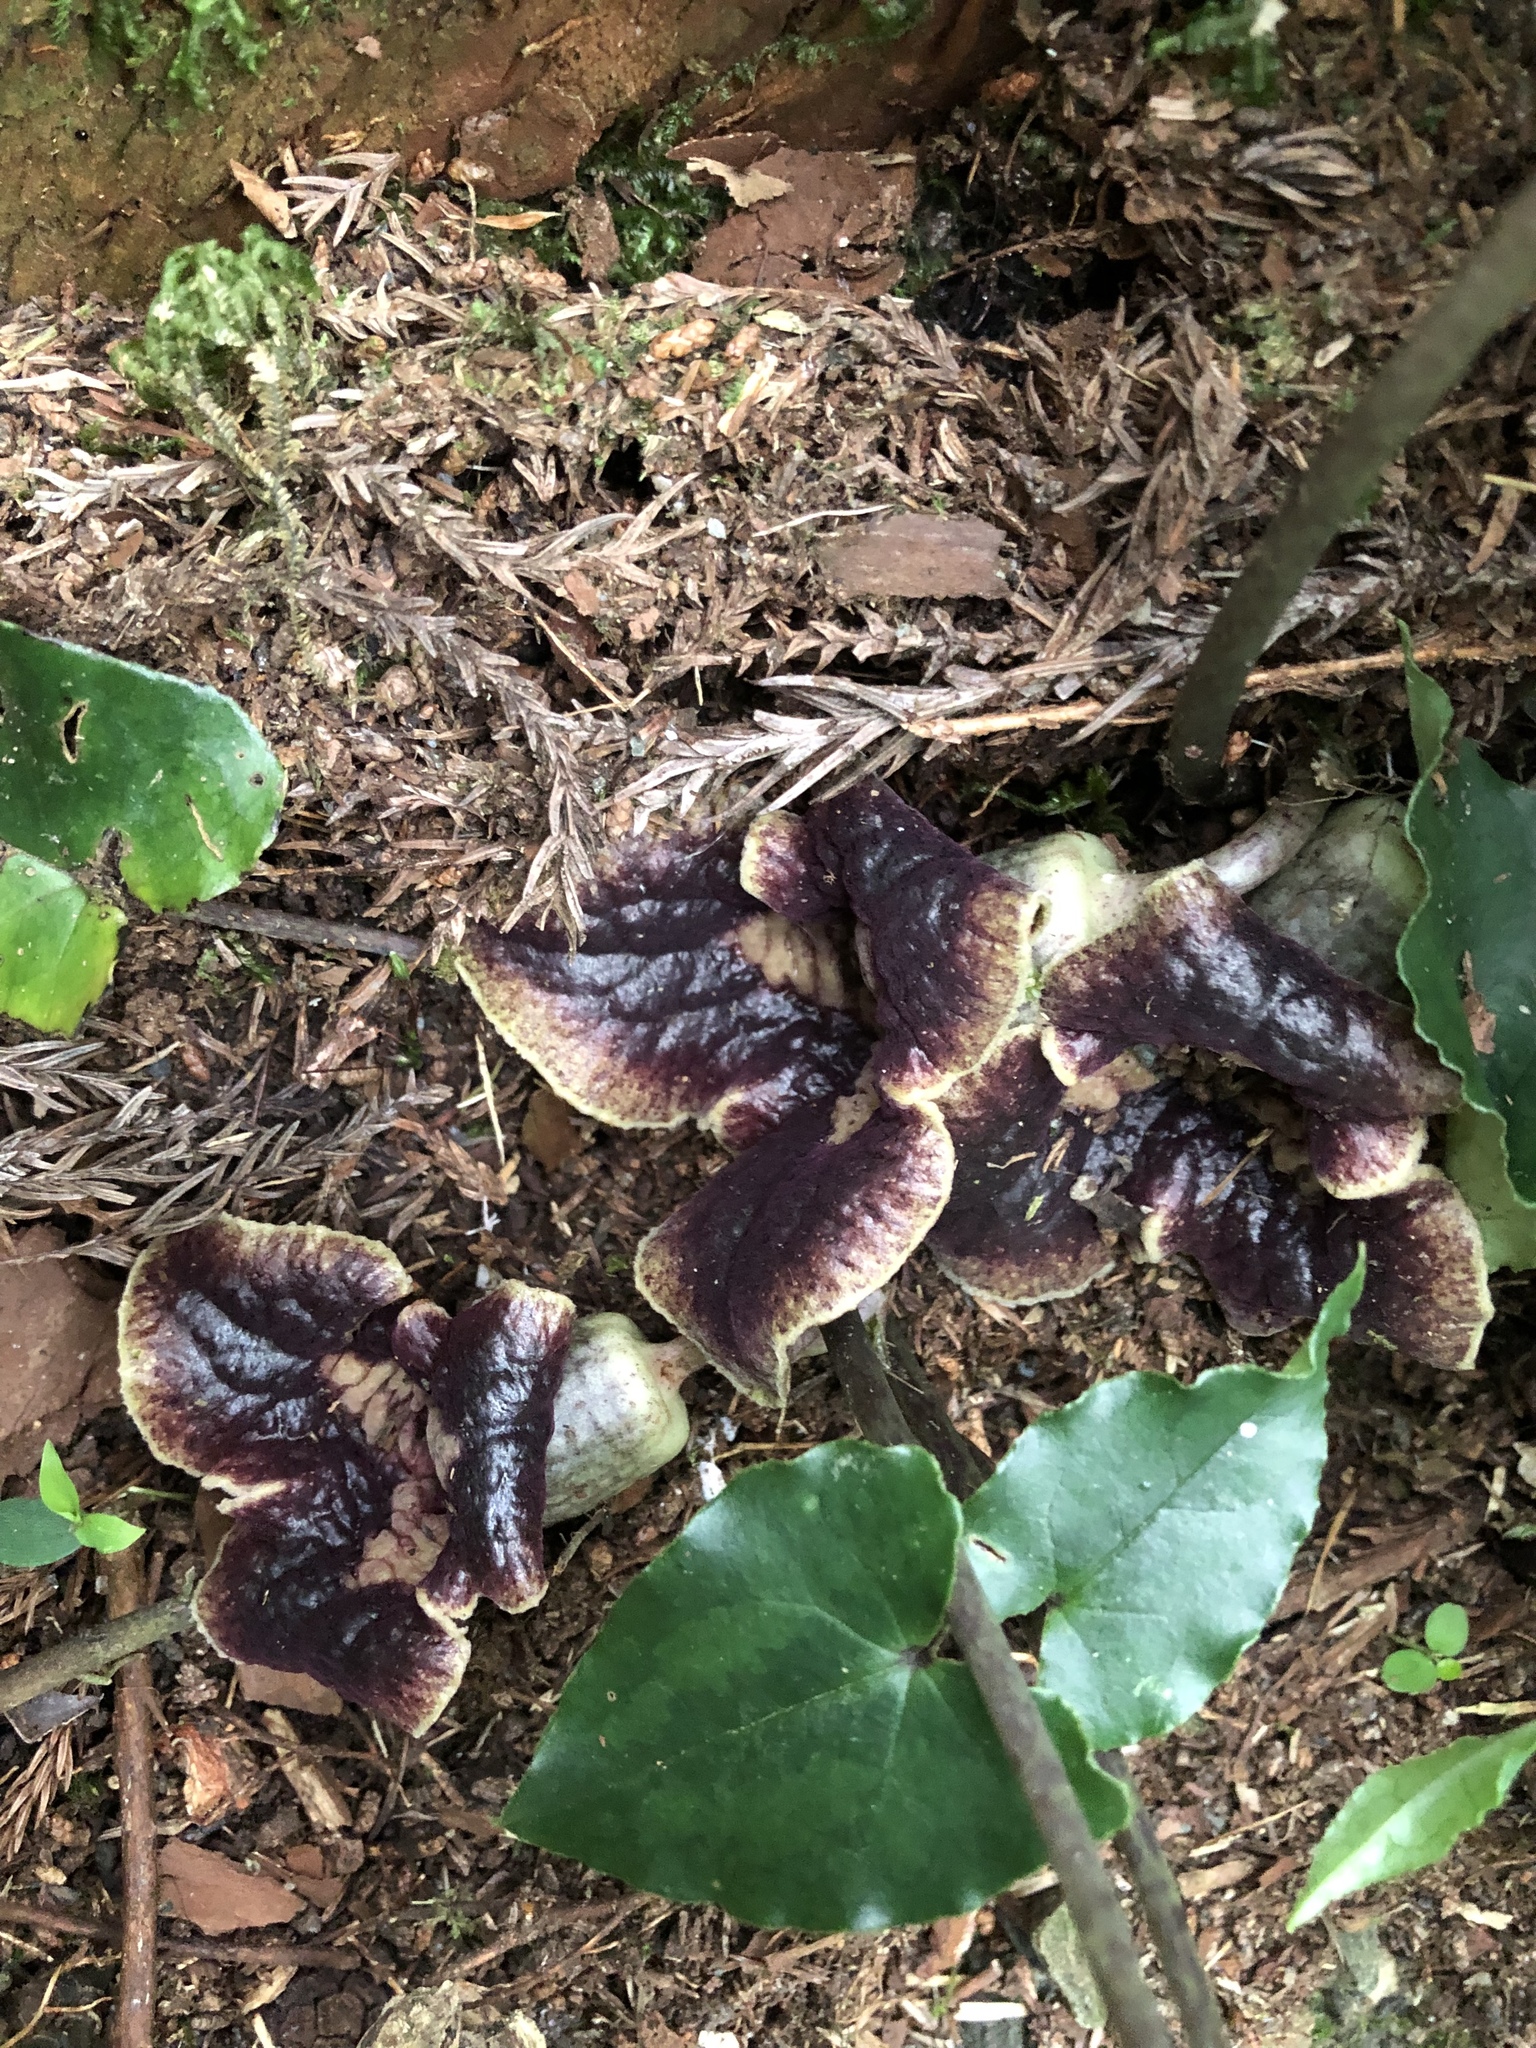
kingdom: Plantae
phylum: Tracheophyta
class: Magnoliopsida
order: Piperales
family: Aristolochiaceae
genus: Asarum
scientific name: Asarum hypogynum
